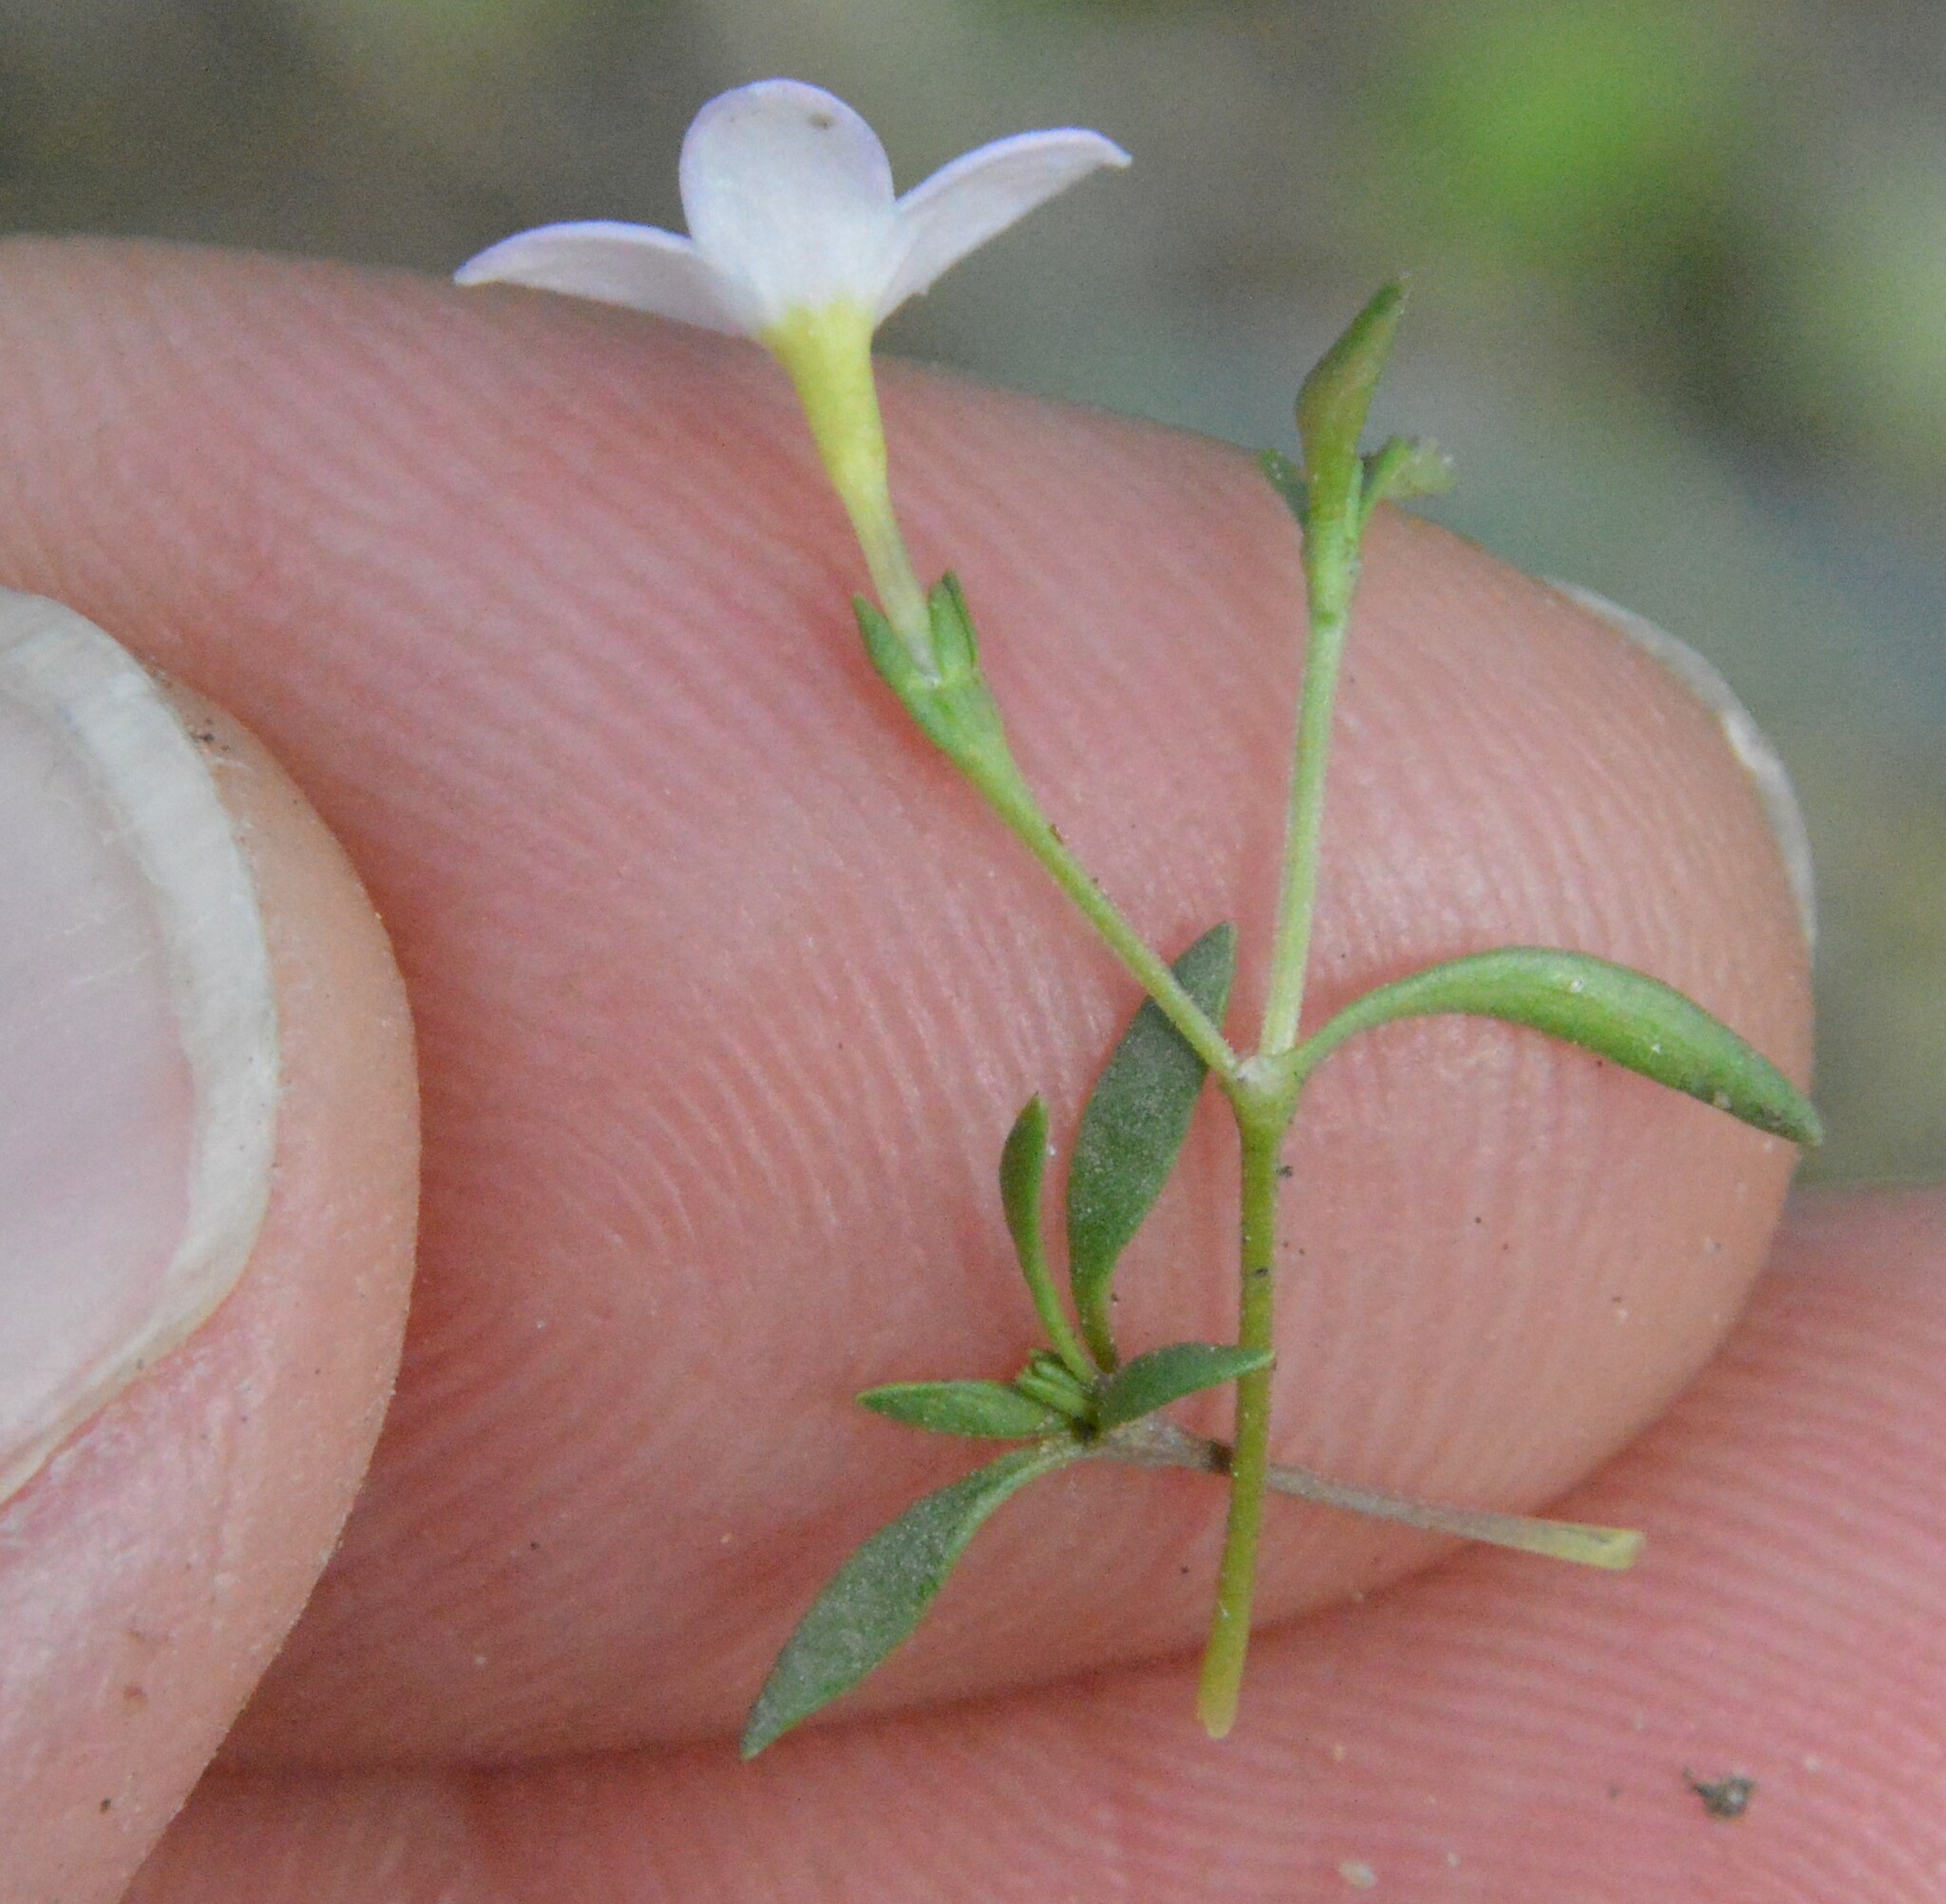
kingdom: Plantae
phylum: Tracheophyta
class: Magnoliopsida
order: Gentianales
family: Rubiaceae
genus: Houstonia
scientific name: Houstonia rosea
